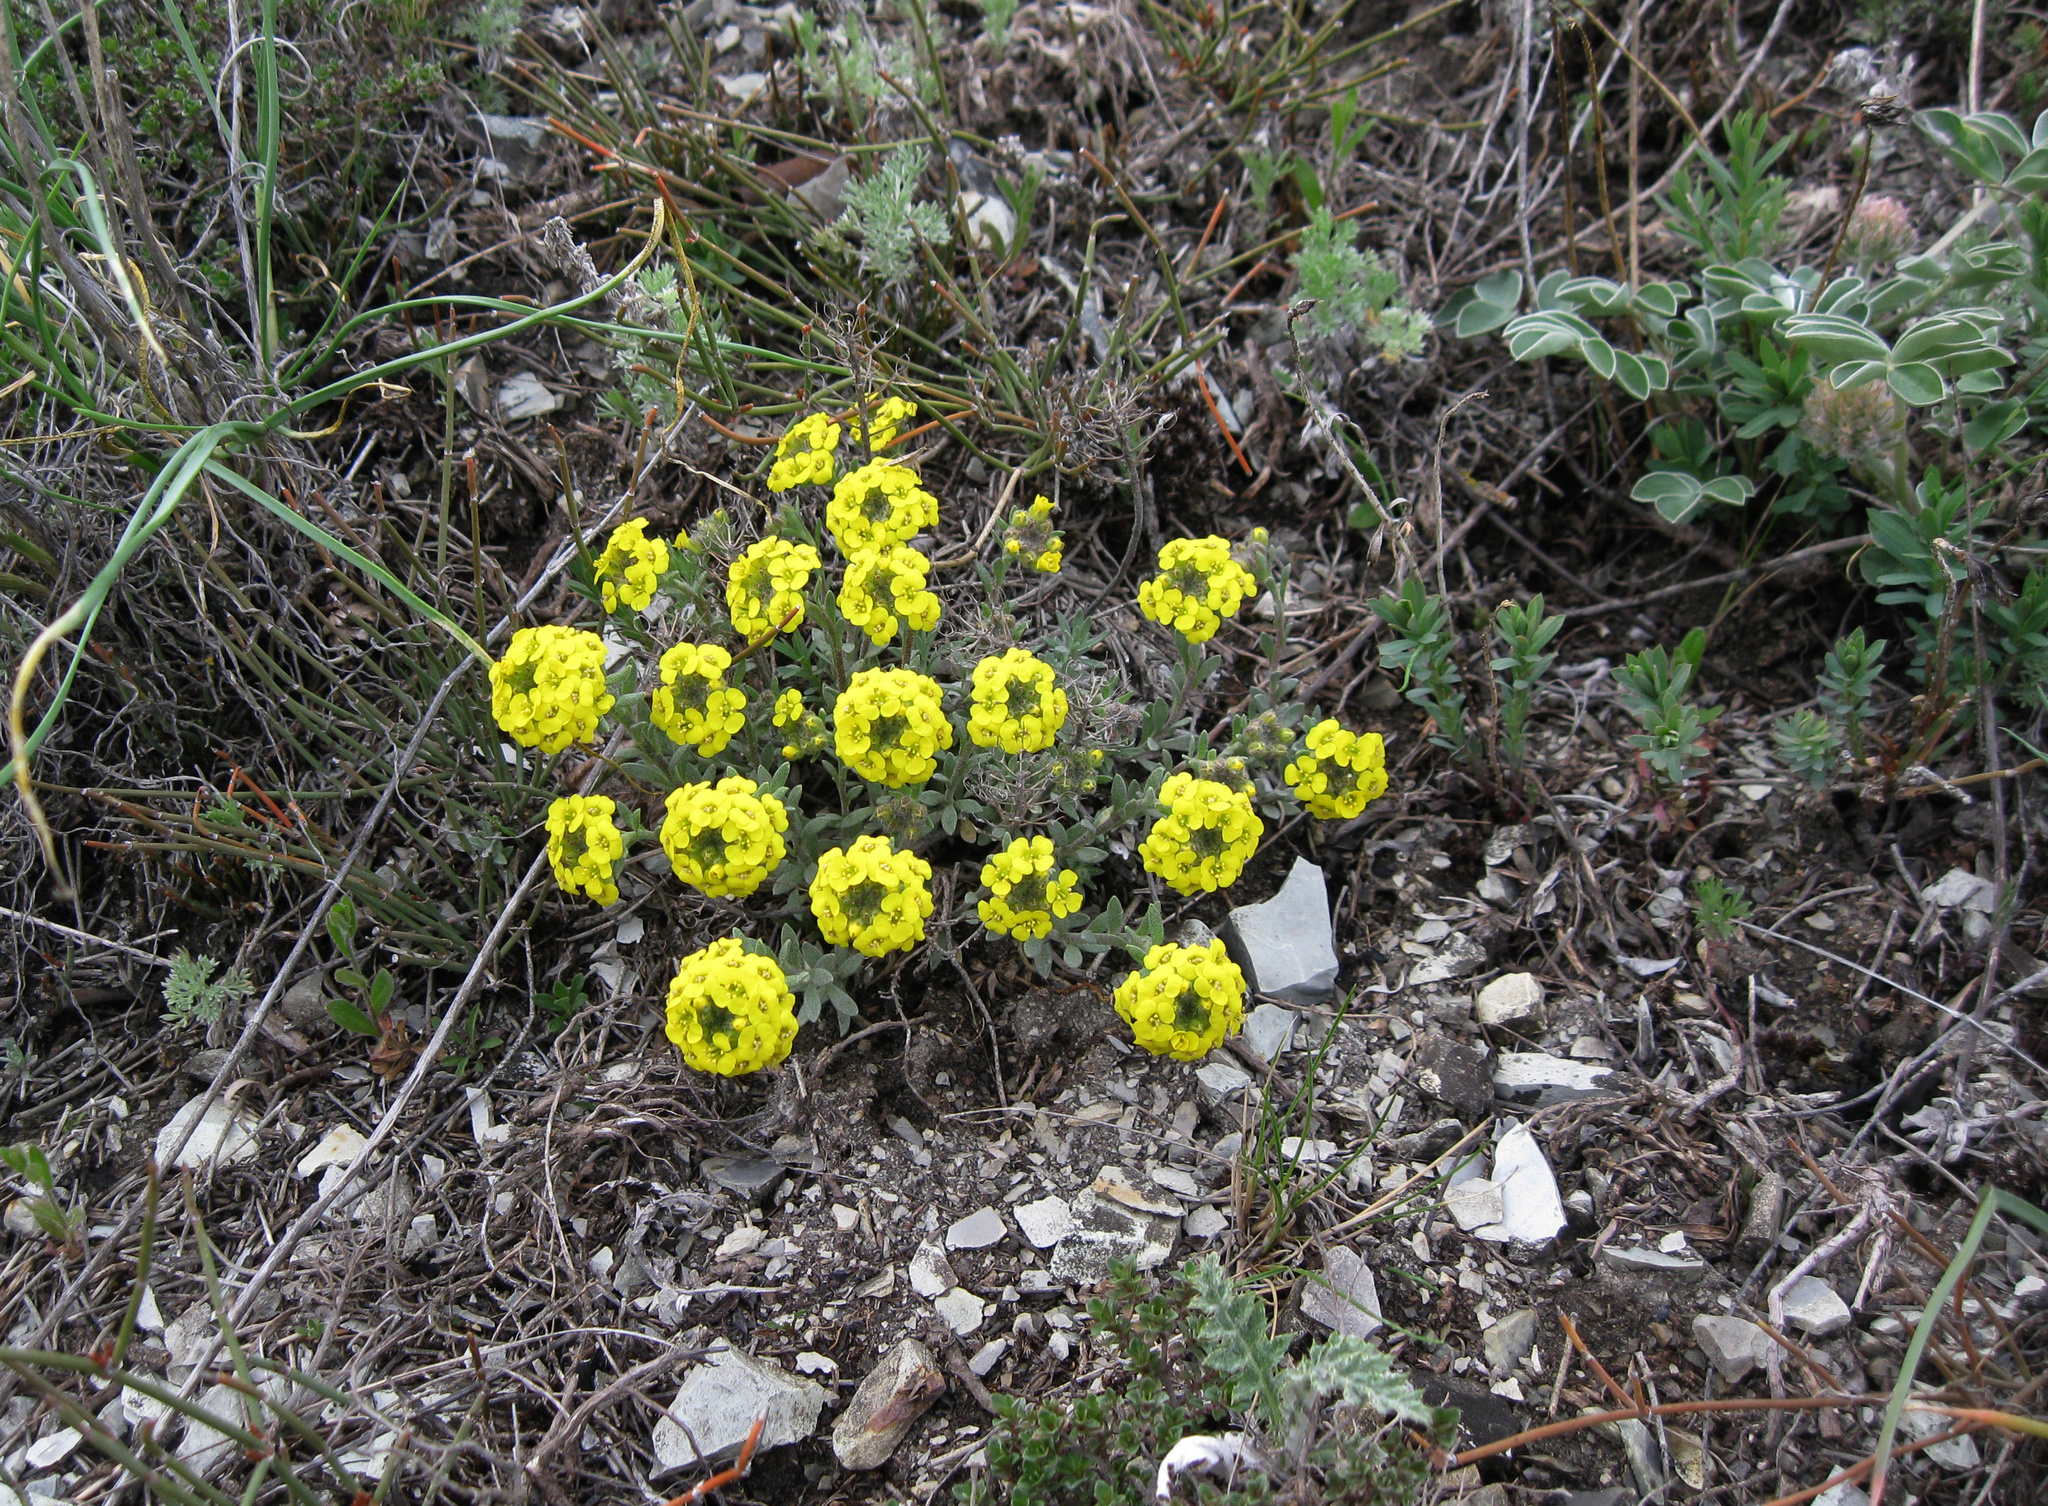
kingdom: Plantae
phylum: Tracheophyta
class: Magnoliopsida
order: Brassicales
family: Brassicaceae
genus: Alyssum
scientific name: Alyssum lenense
